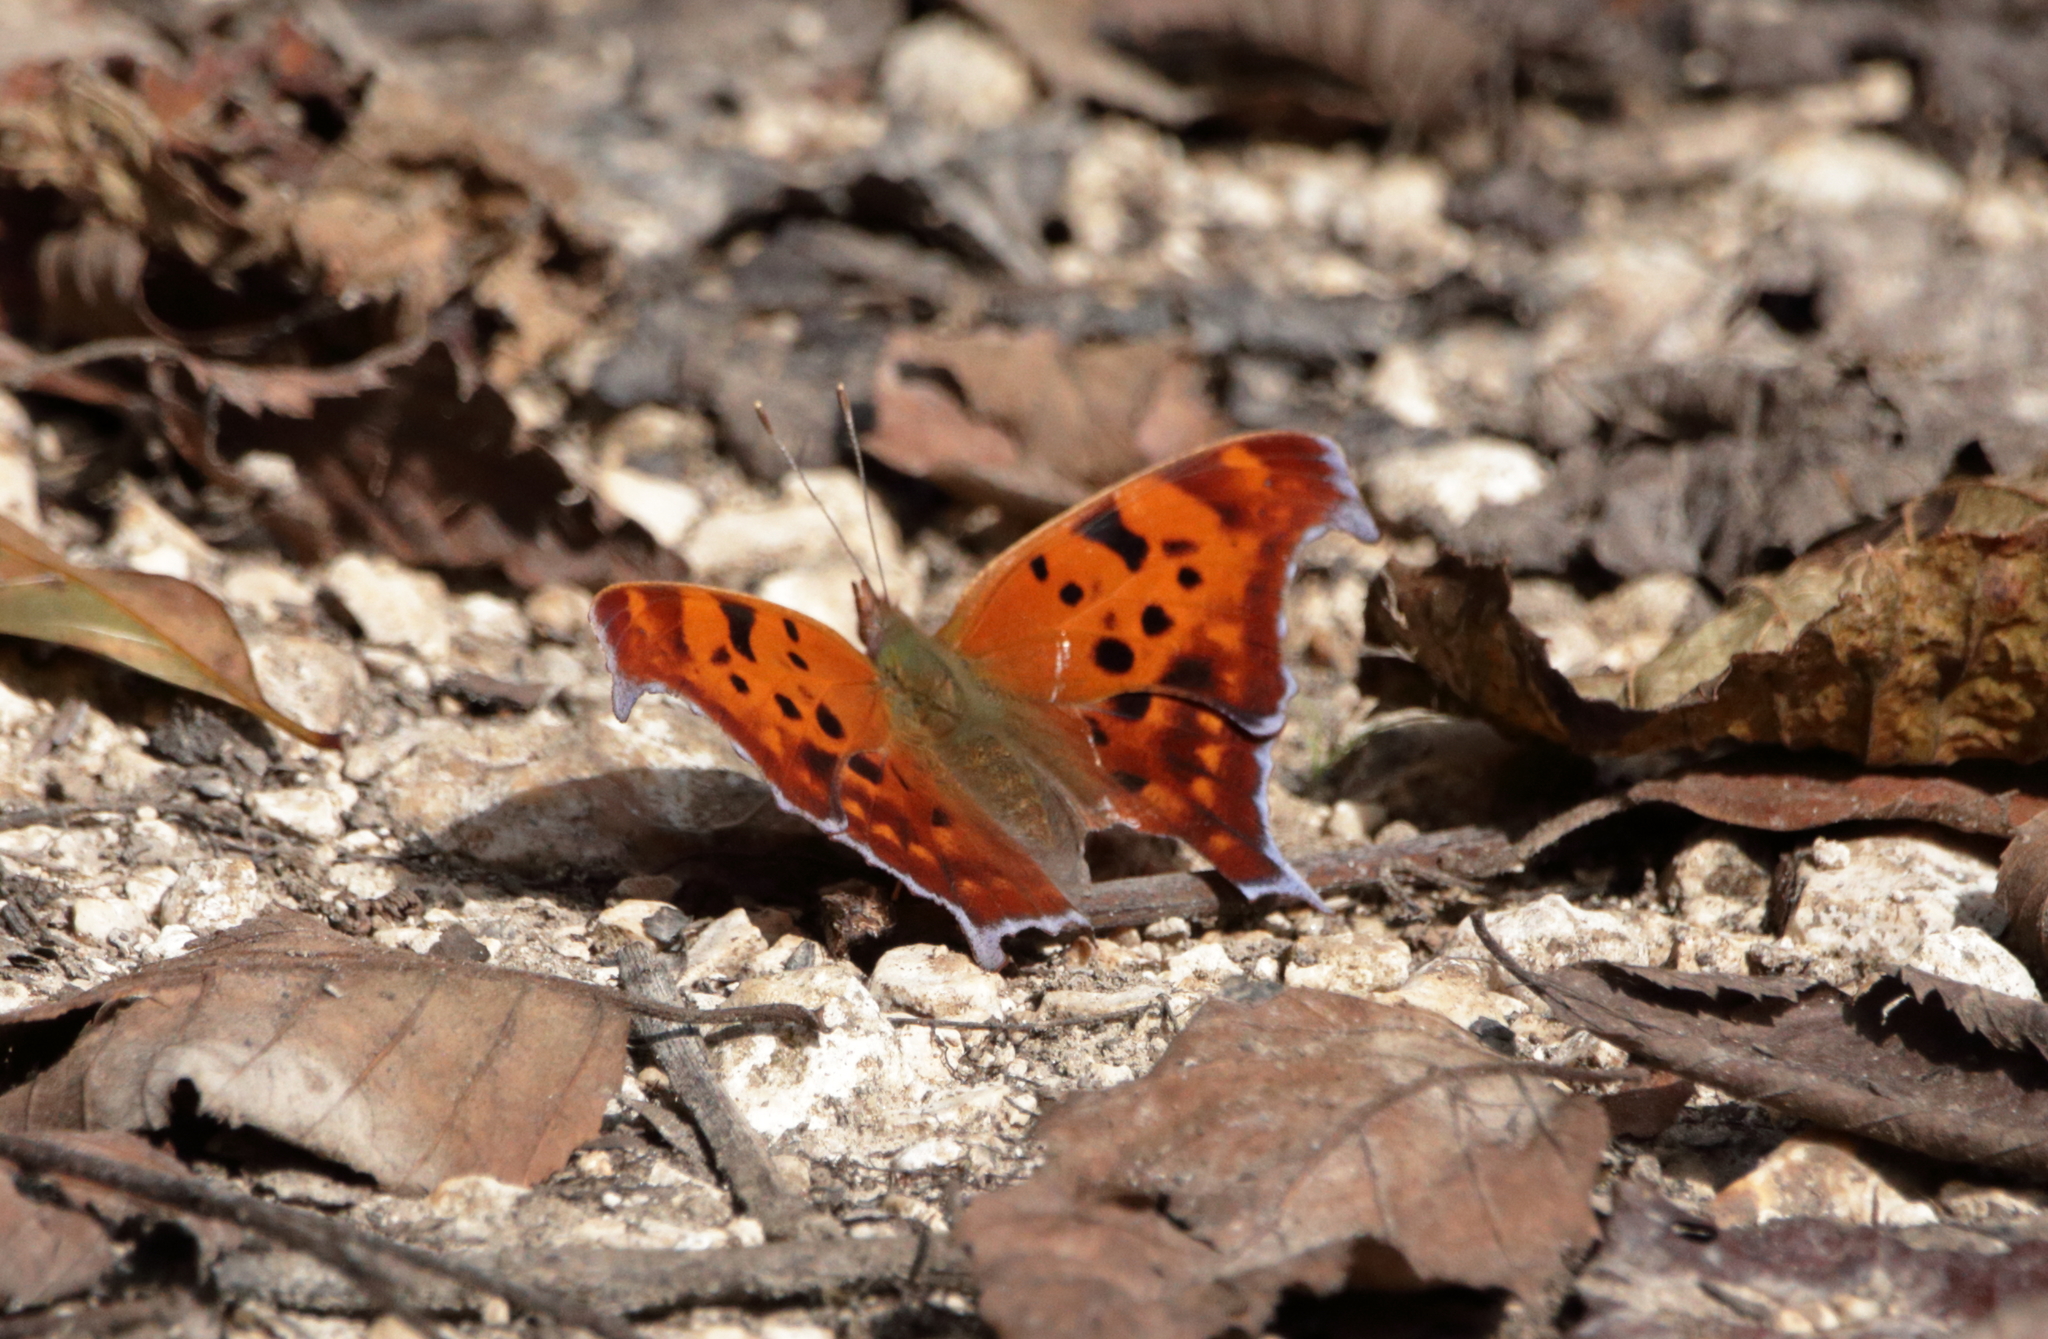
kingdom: Animalia
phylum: Arthropoda
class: Insecta
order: Lepidoptera
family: Nymphalidae
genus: Polygonia
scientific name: Polygonia interrogationis
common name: Question mark
